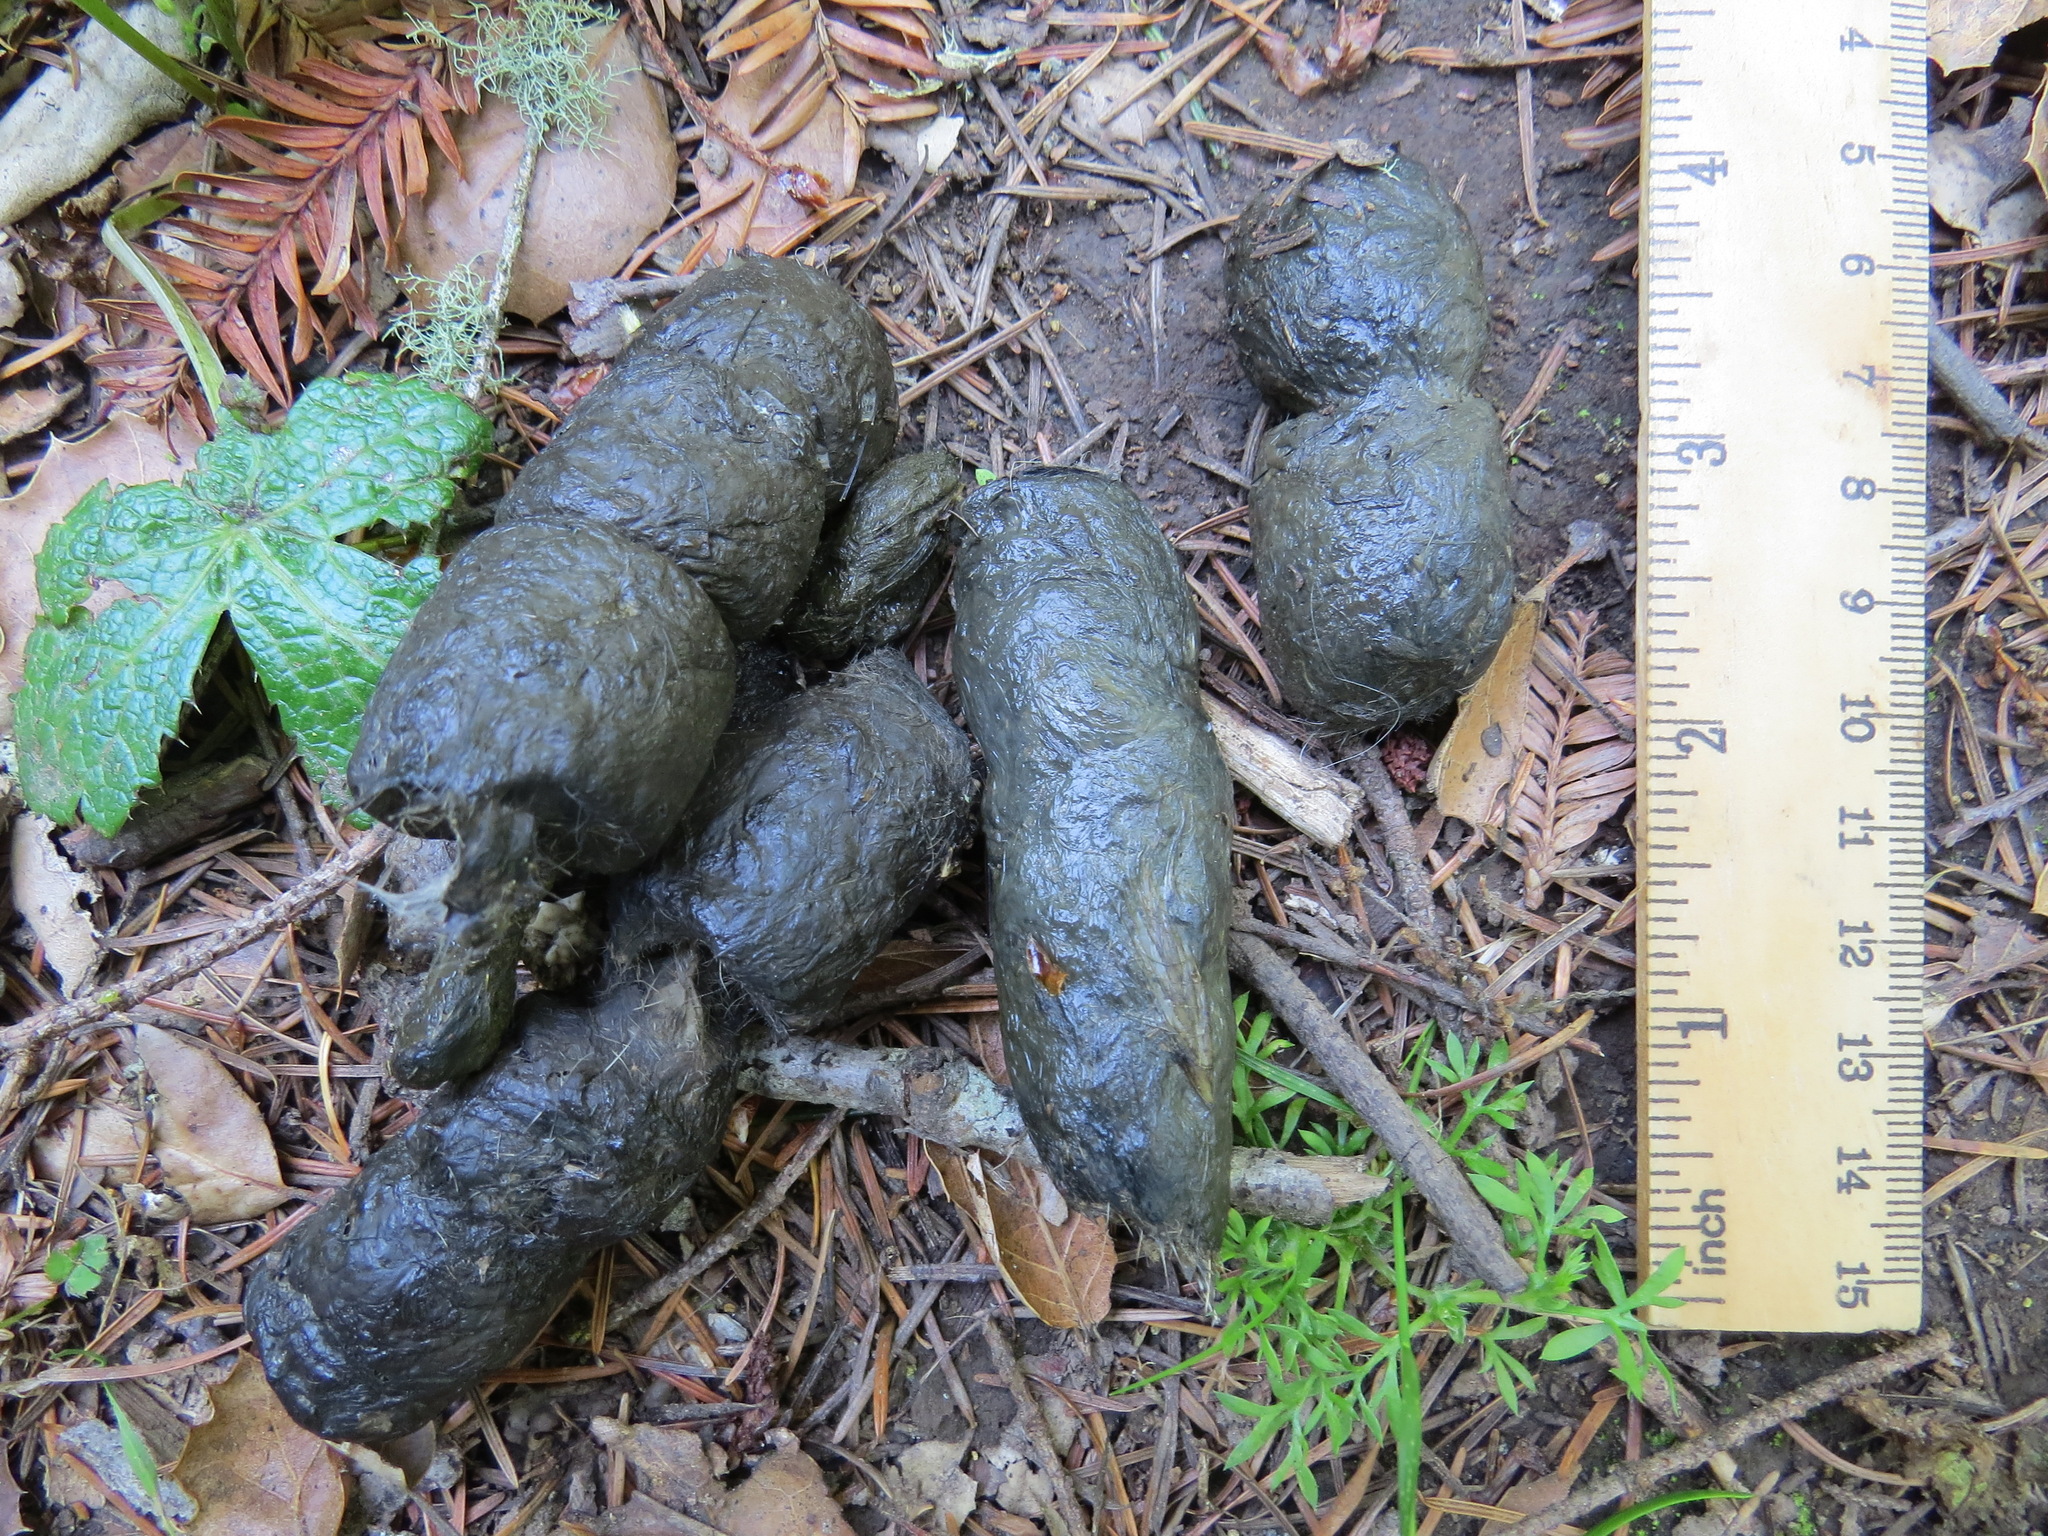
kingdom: Animalia
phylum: Chordata
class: Mammalia
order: Carnivora
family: Felidae
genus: Lynx
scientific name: Lynx rufus
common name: Bobcat
